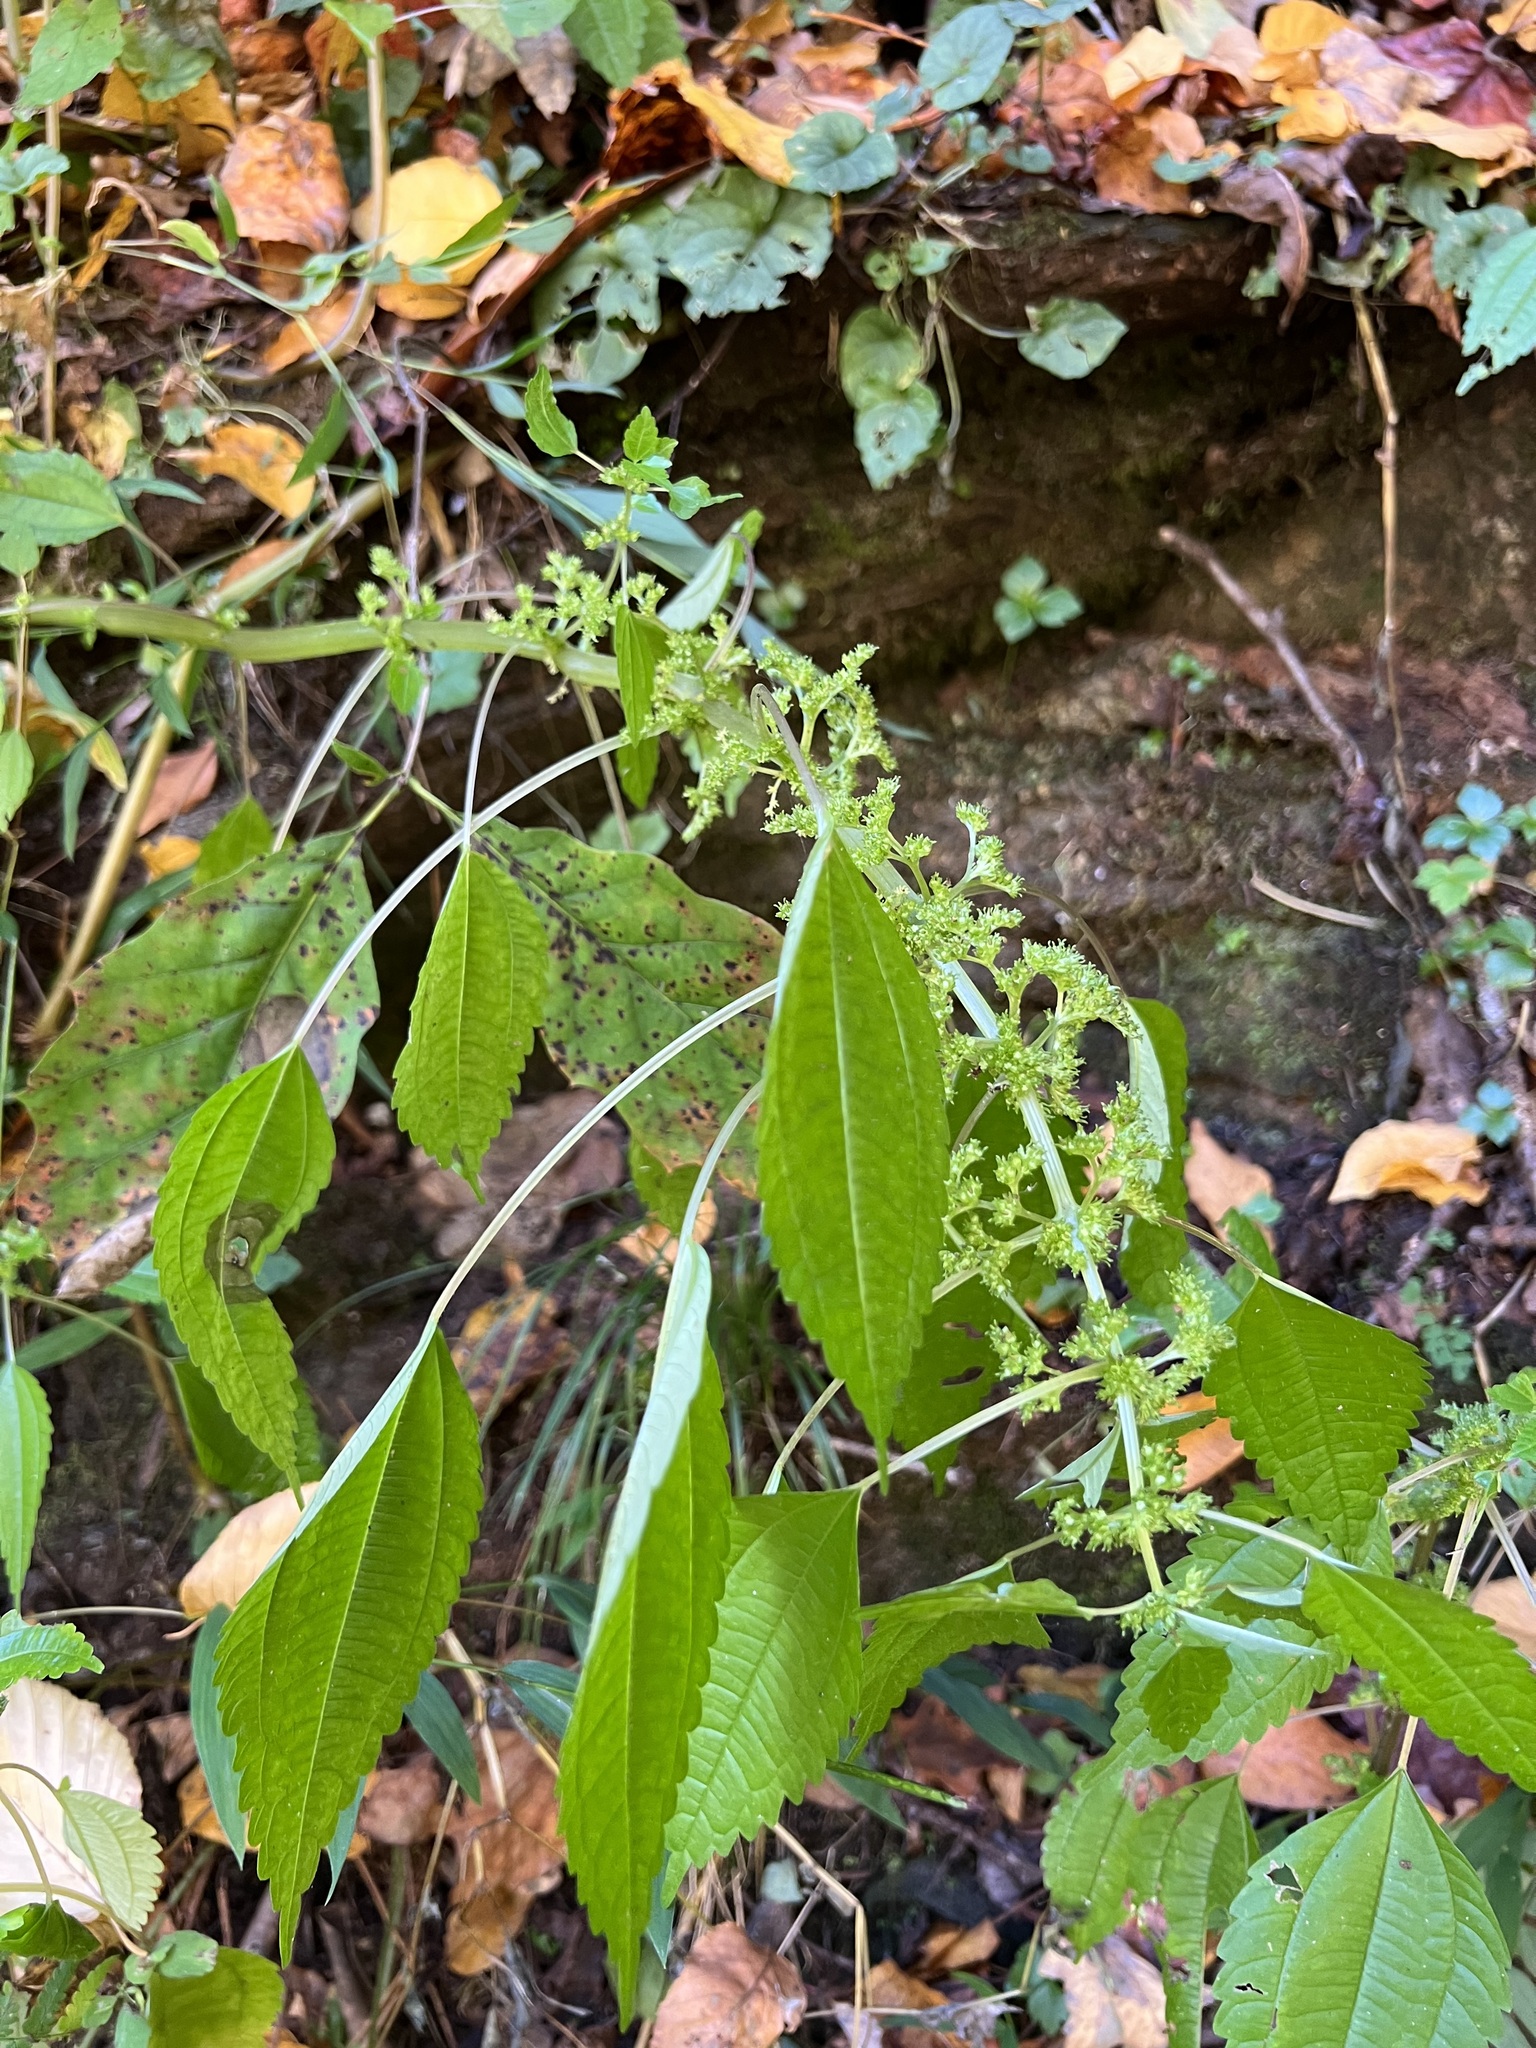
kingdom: Plantae
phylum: Tracheophyta
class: Magnoliopsida
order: Rosales
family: Urticaceae
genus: Pilea
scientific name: Pilea pumila
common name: Clearweed
